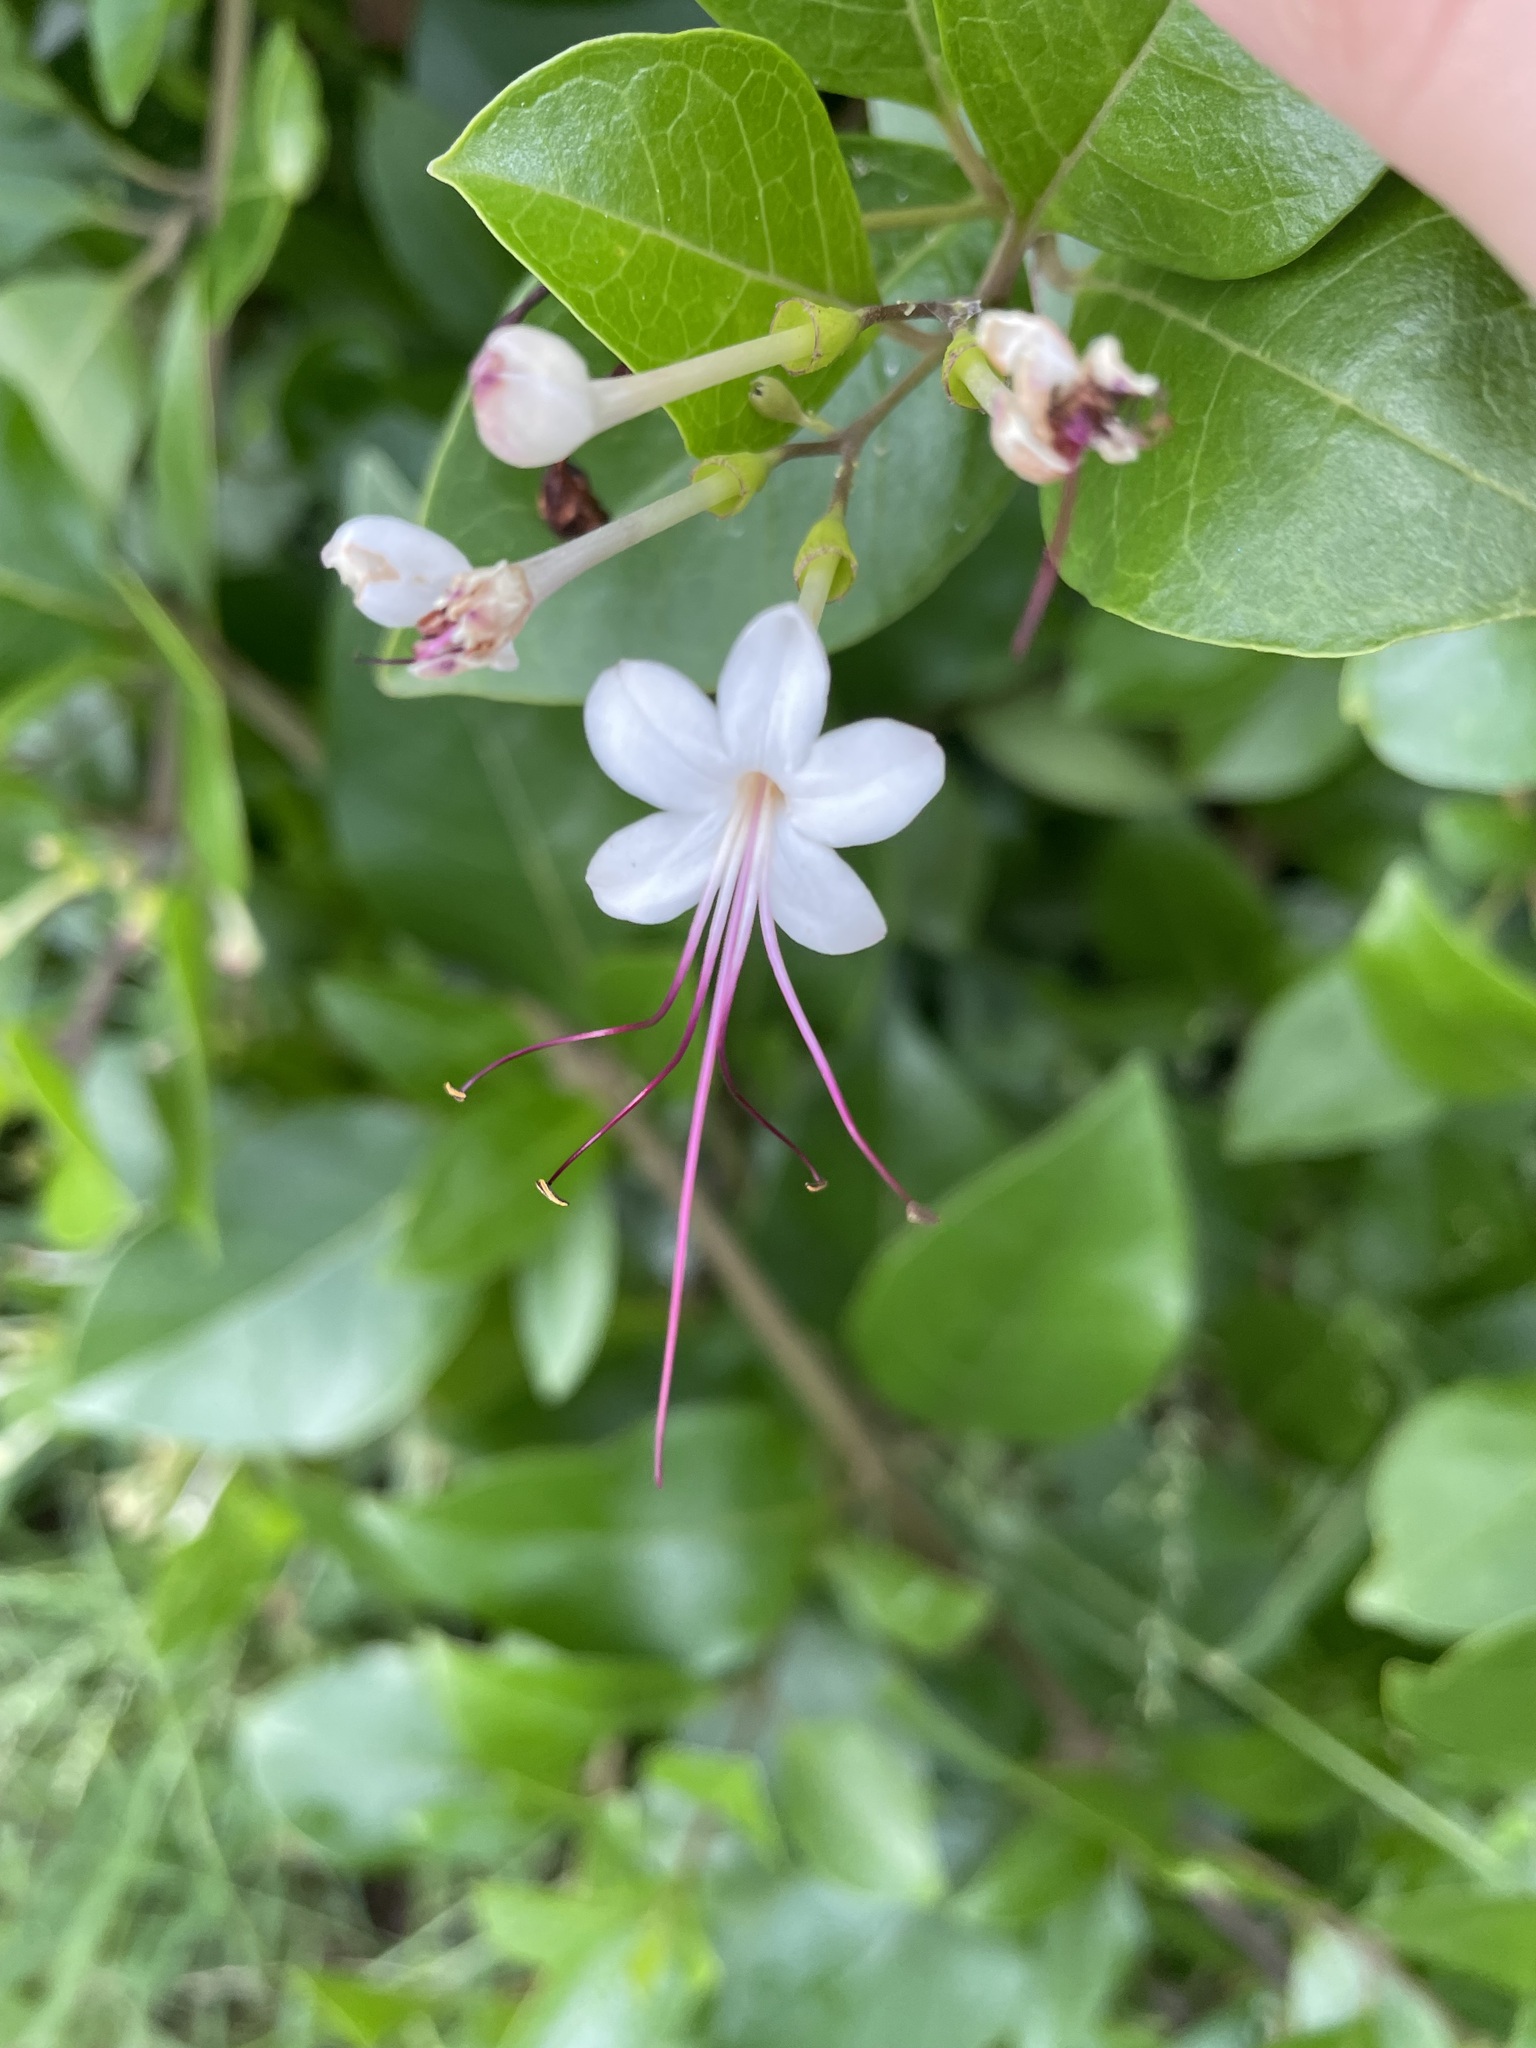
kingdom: Plantae
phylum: Tracheophyta
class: Magnoliopsida
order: Lamiales
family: Lamiaceae
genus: Volkameria
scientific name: Volkameria inermis
